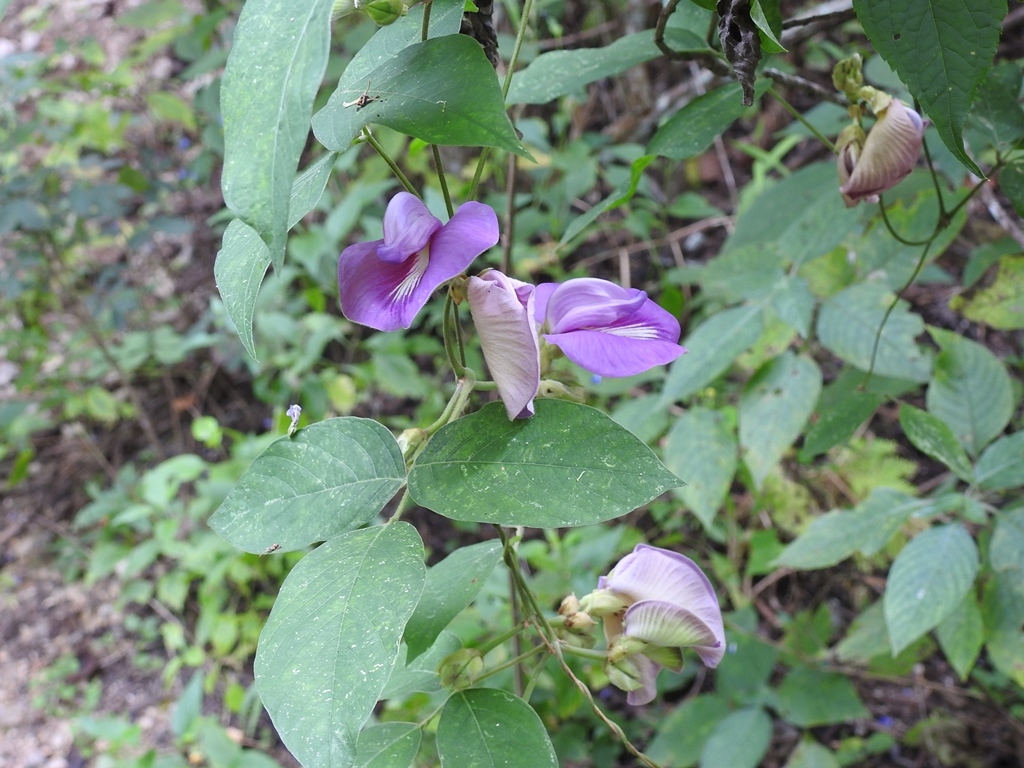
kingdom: Plantae
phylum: Tracheophyta
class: Magnoliopsida
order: Fabales
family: Fabaceae
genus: Centrosema
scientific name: Centrosema virginianum
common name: Butterfly-pea
